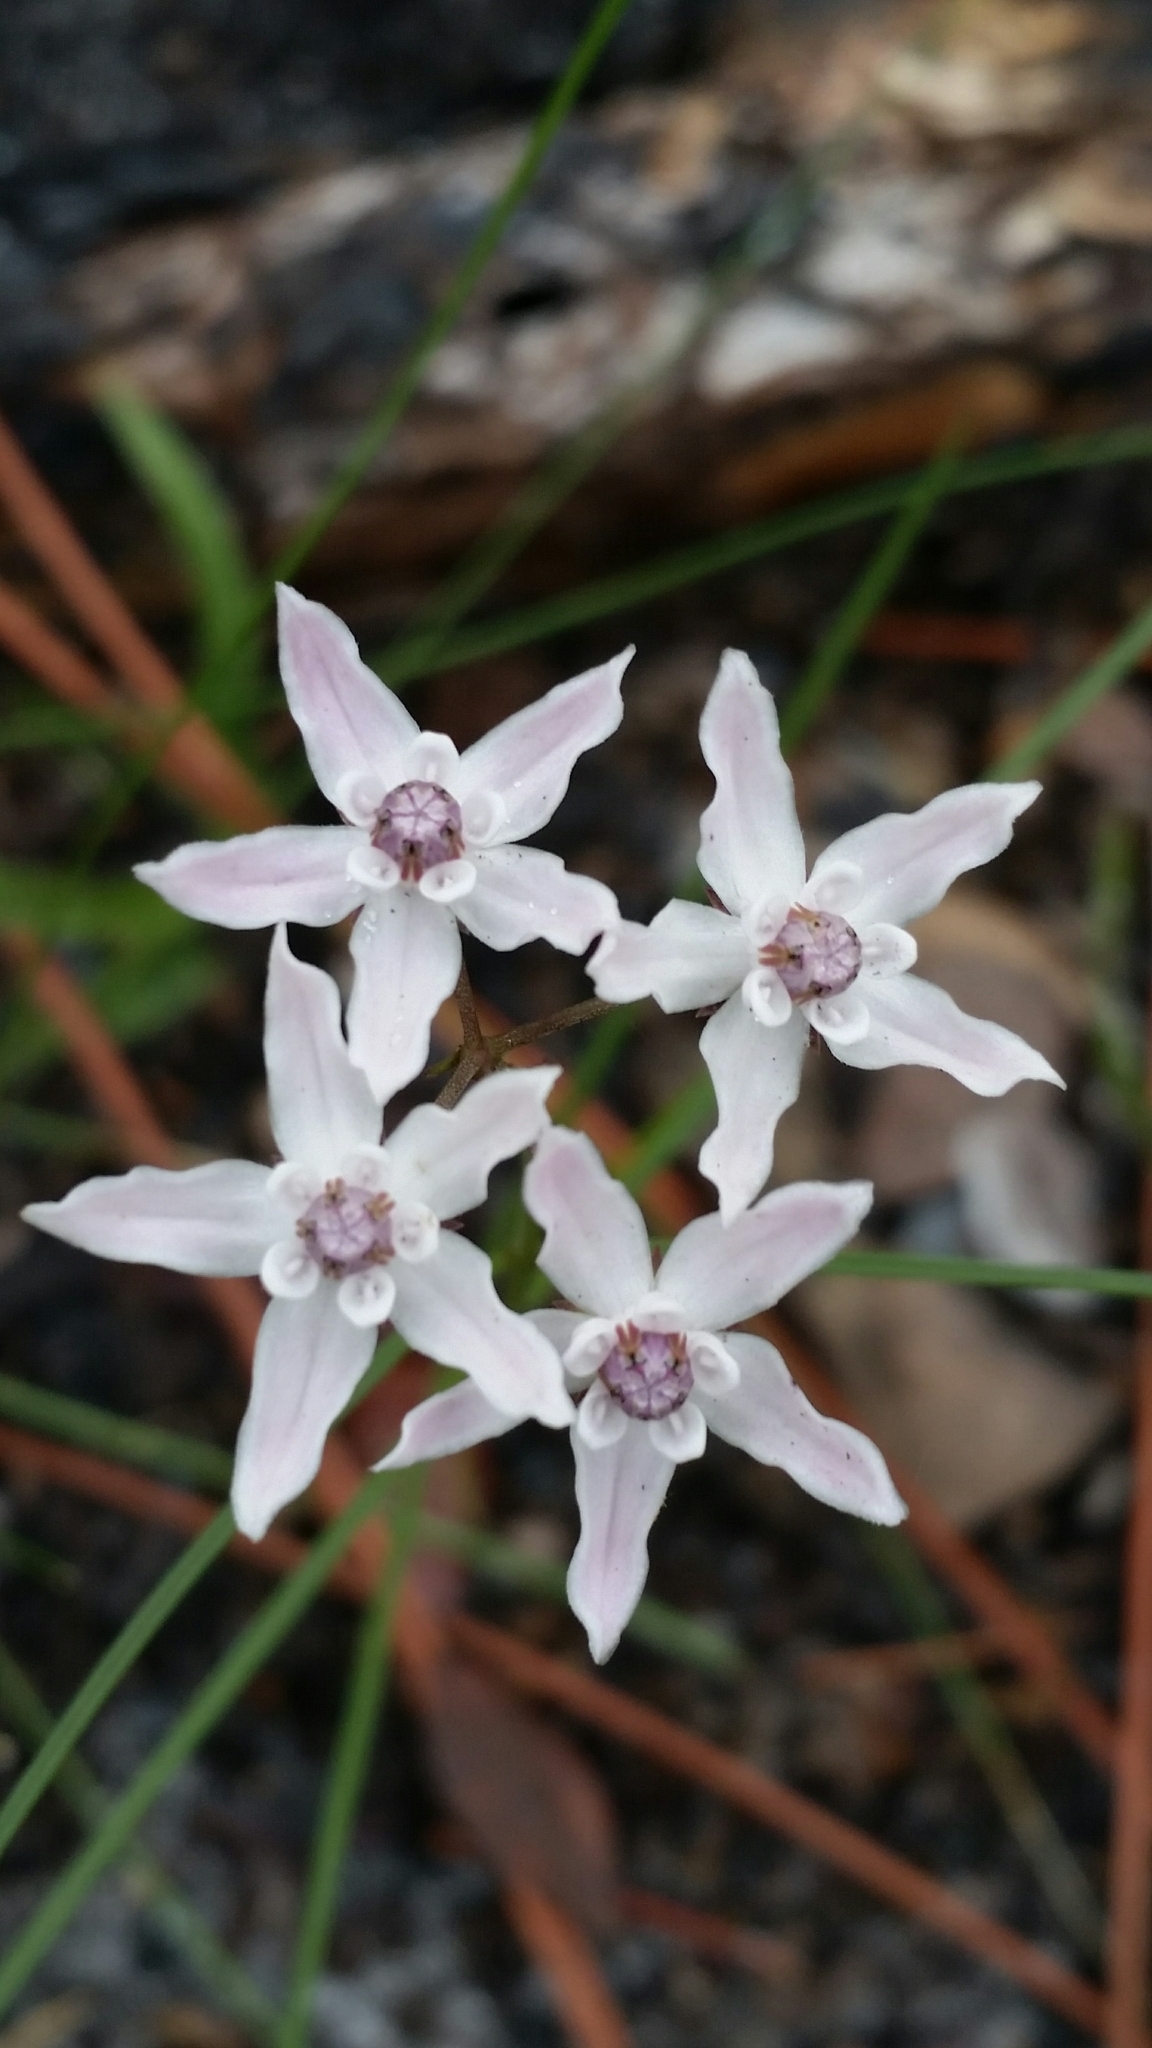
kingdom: Plantae
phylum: Tracheophyta
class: Magnoliopsida
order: Gentianales
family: Apocynaceae
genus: Asclepias
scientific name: Asclepias feayi
